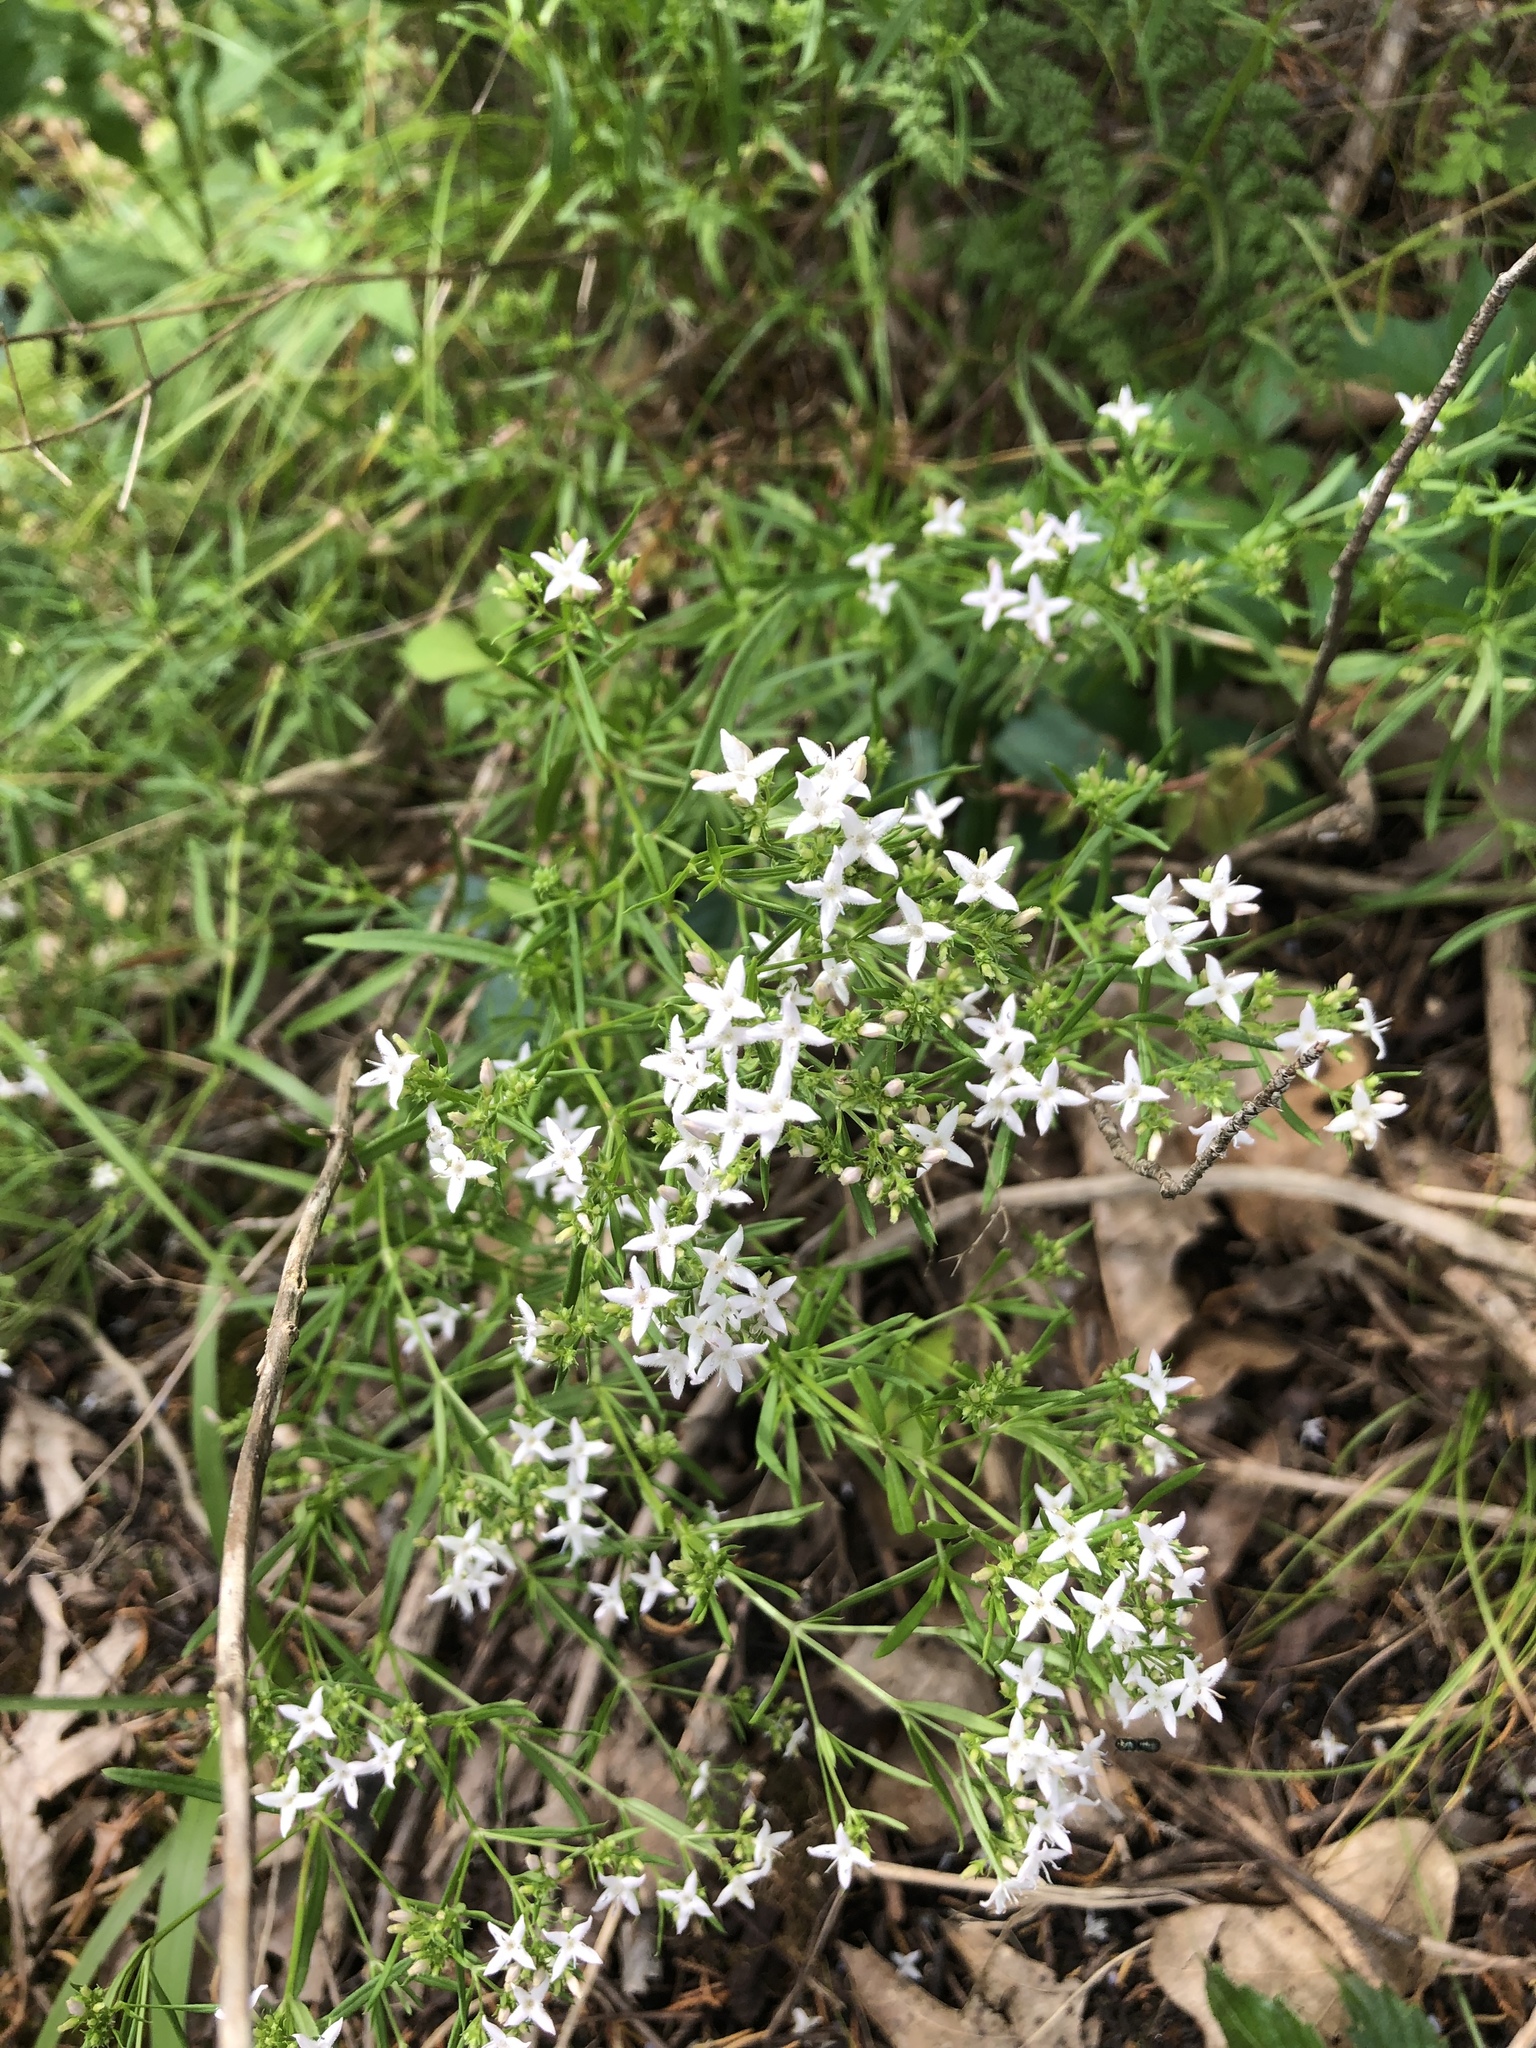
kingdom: Plantae
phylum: Tracheophyta
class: Magnoliopsida
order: Gentianales
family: Rubiaceae
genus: Stenaria
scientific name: Stenaria nigricans
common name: Diamondflowers
